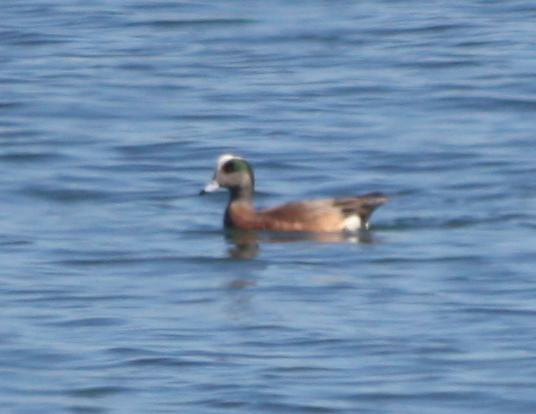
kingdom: Animalia
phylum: Chordata
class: Aves
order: Anseriformes
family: Anatidae
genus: Mareca
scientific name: Mareca americana
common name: American wigeon
